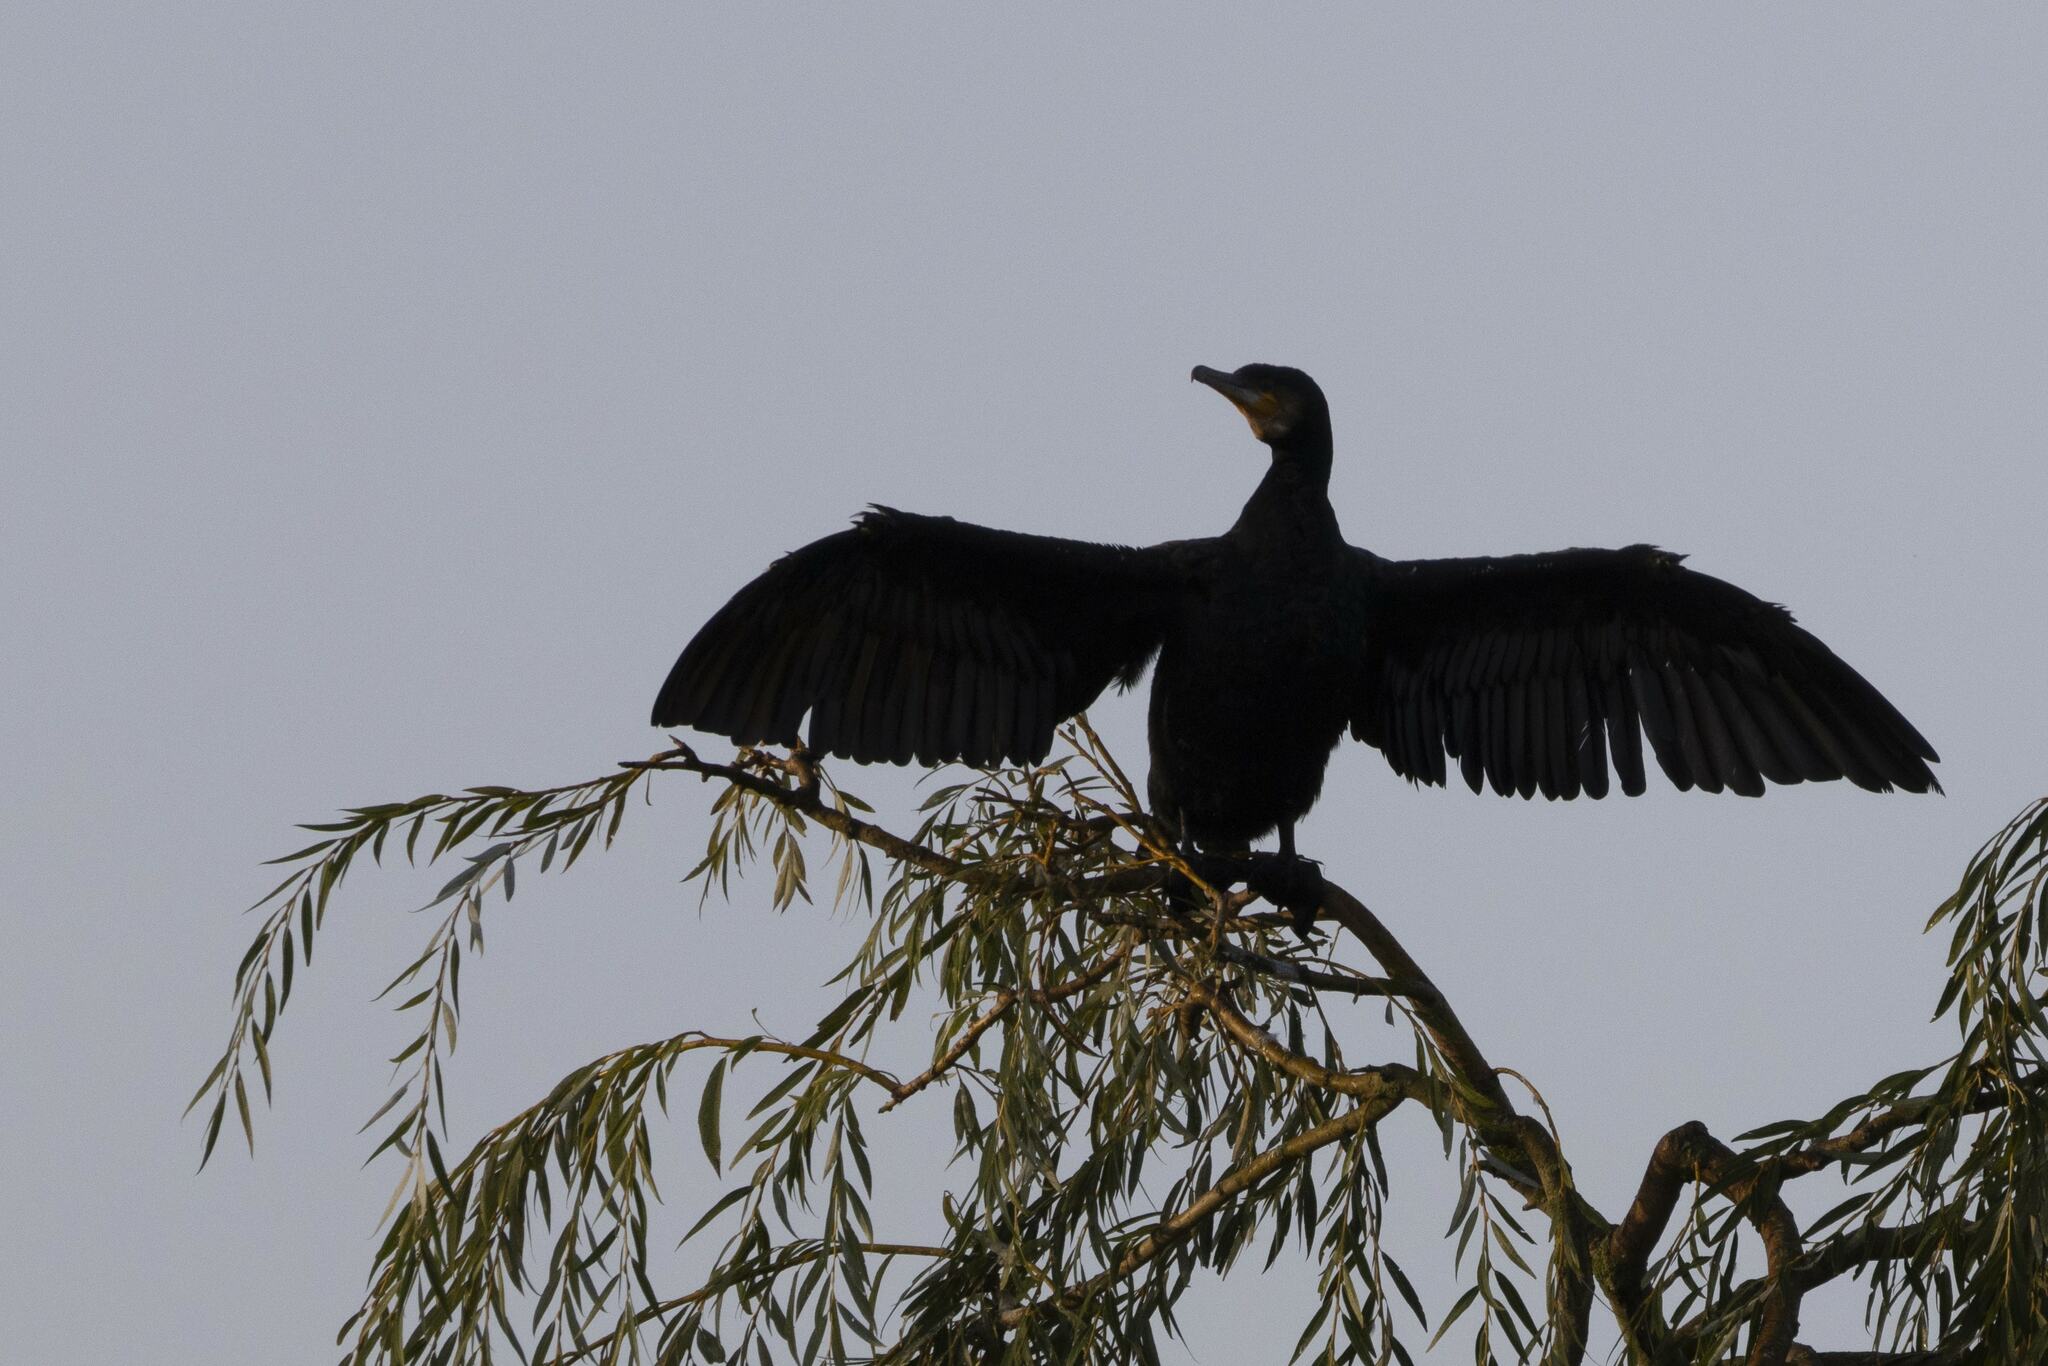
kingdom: Animalia
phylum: Chordata
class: Aves
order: Suliformes
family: Phalacrocoracidae
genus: Phalacrocorax
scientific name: Phalacrocorax carbo
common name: Great cormorant
